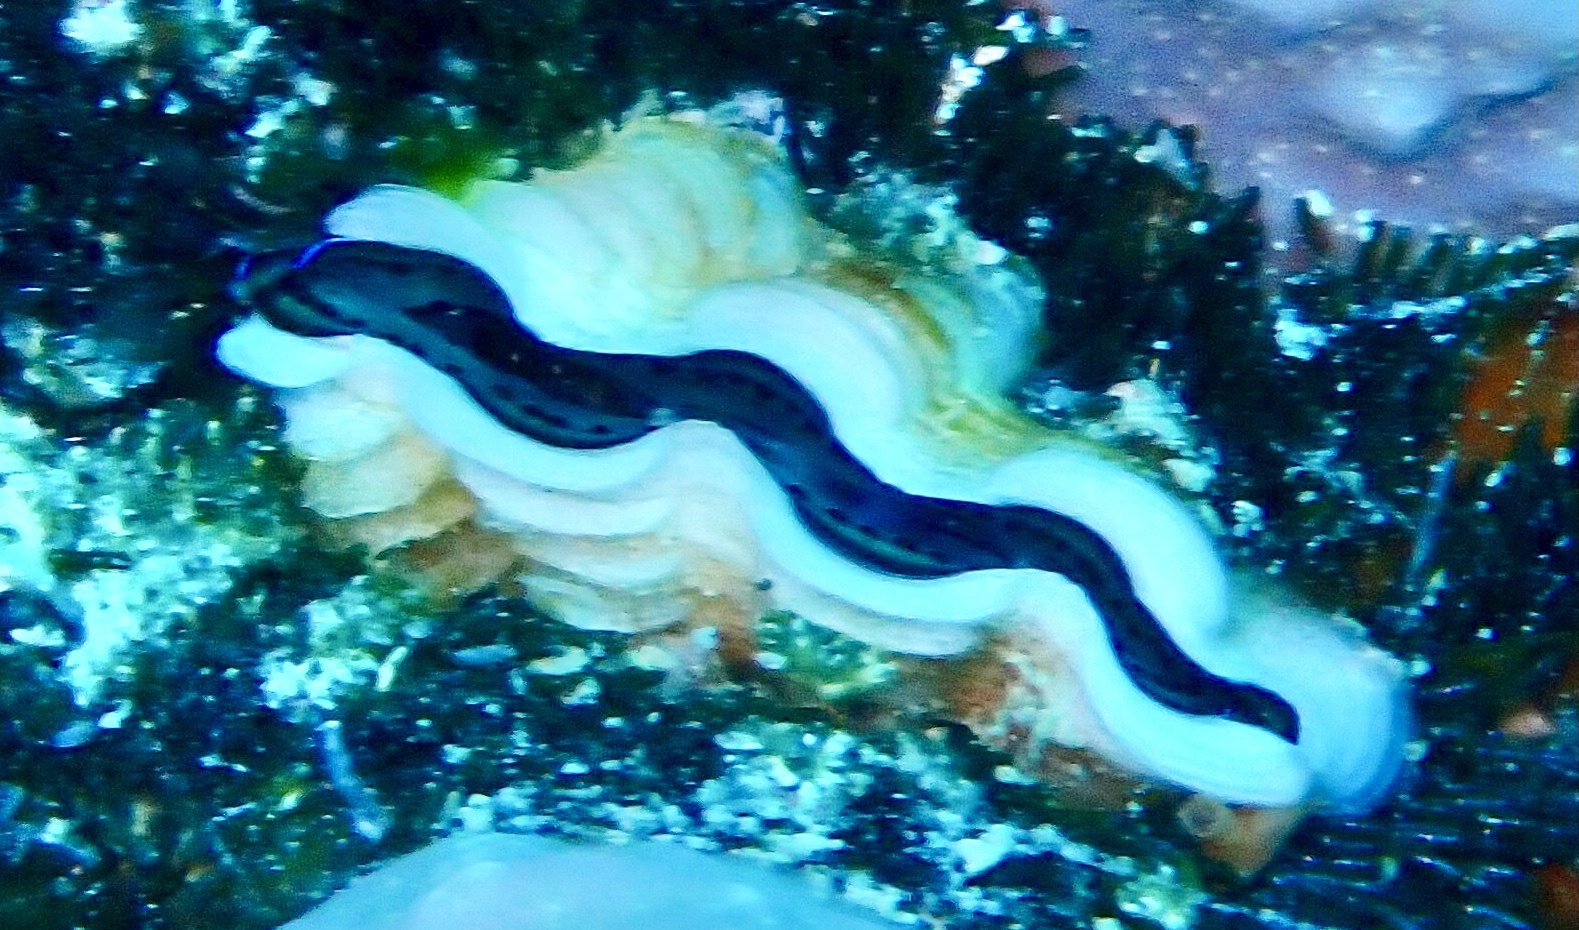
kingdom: Animalia
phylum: Mollusca
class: Bivalvia
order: Cardiida
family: Cardiidae
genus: Tridacna
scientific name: Tridacna maxima
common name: Small giant clam
